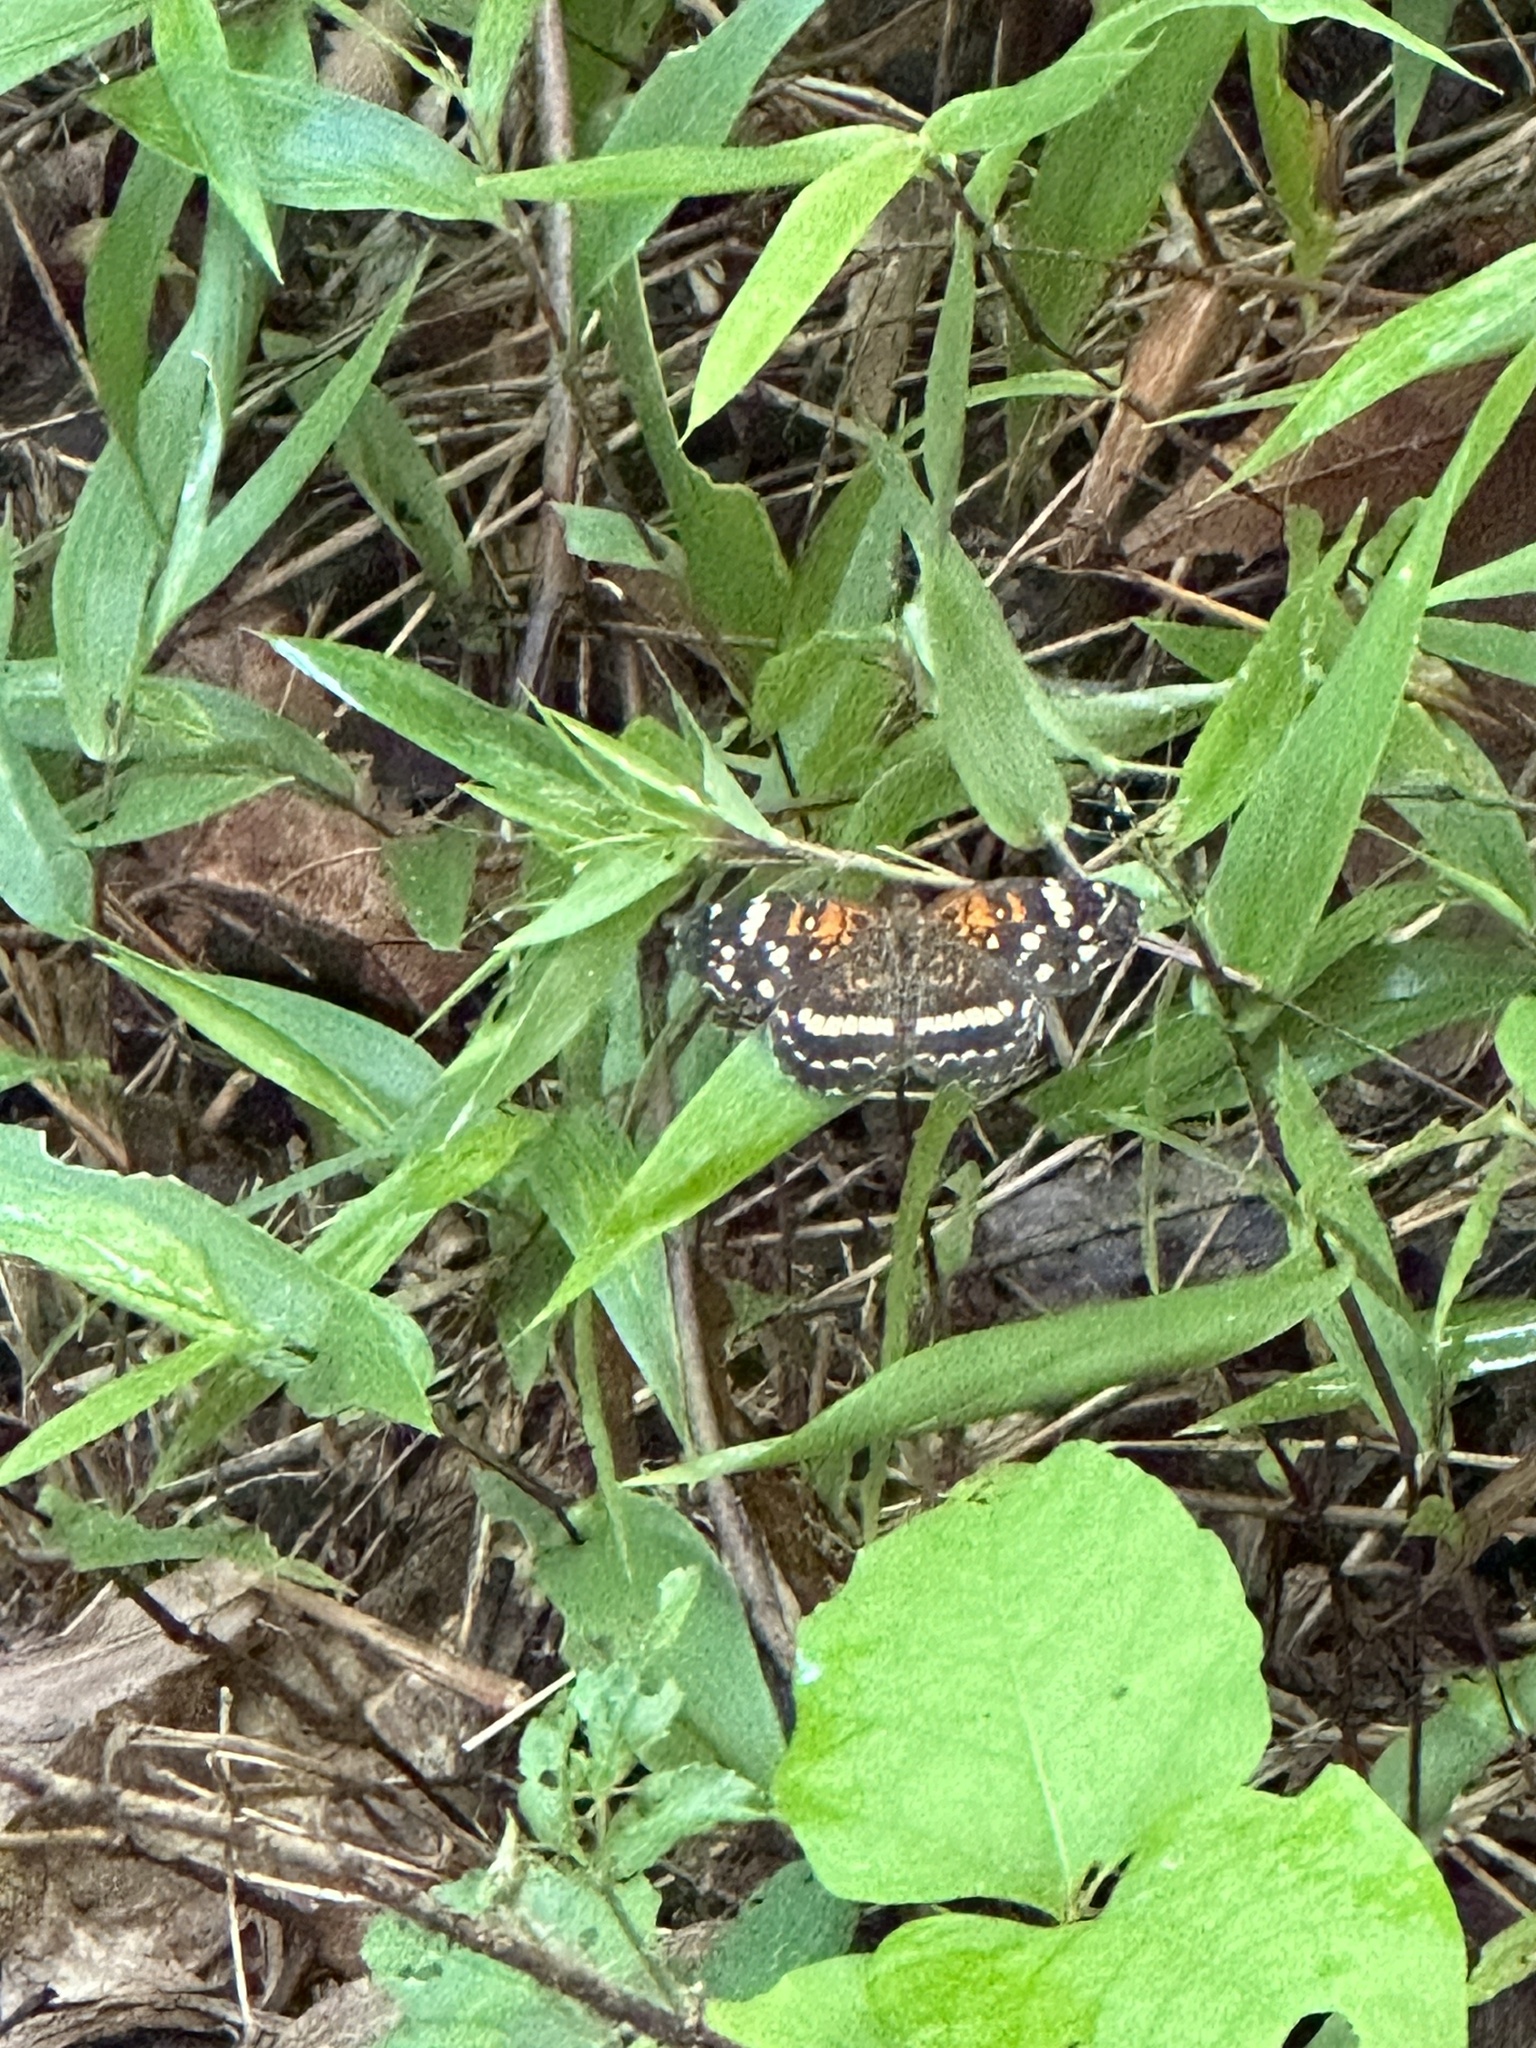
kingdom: Animalia
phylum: Arthropoda
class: Insecta
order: Lepidoptera
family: Nymphalidae
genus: Anthanassa
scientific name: Anthanassa taxana
